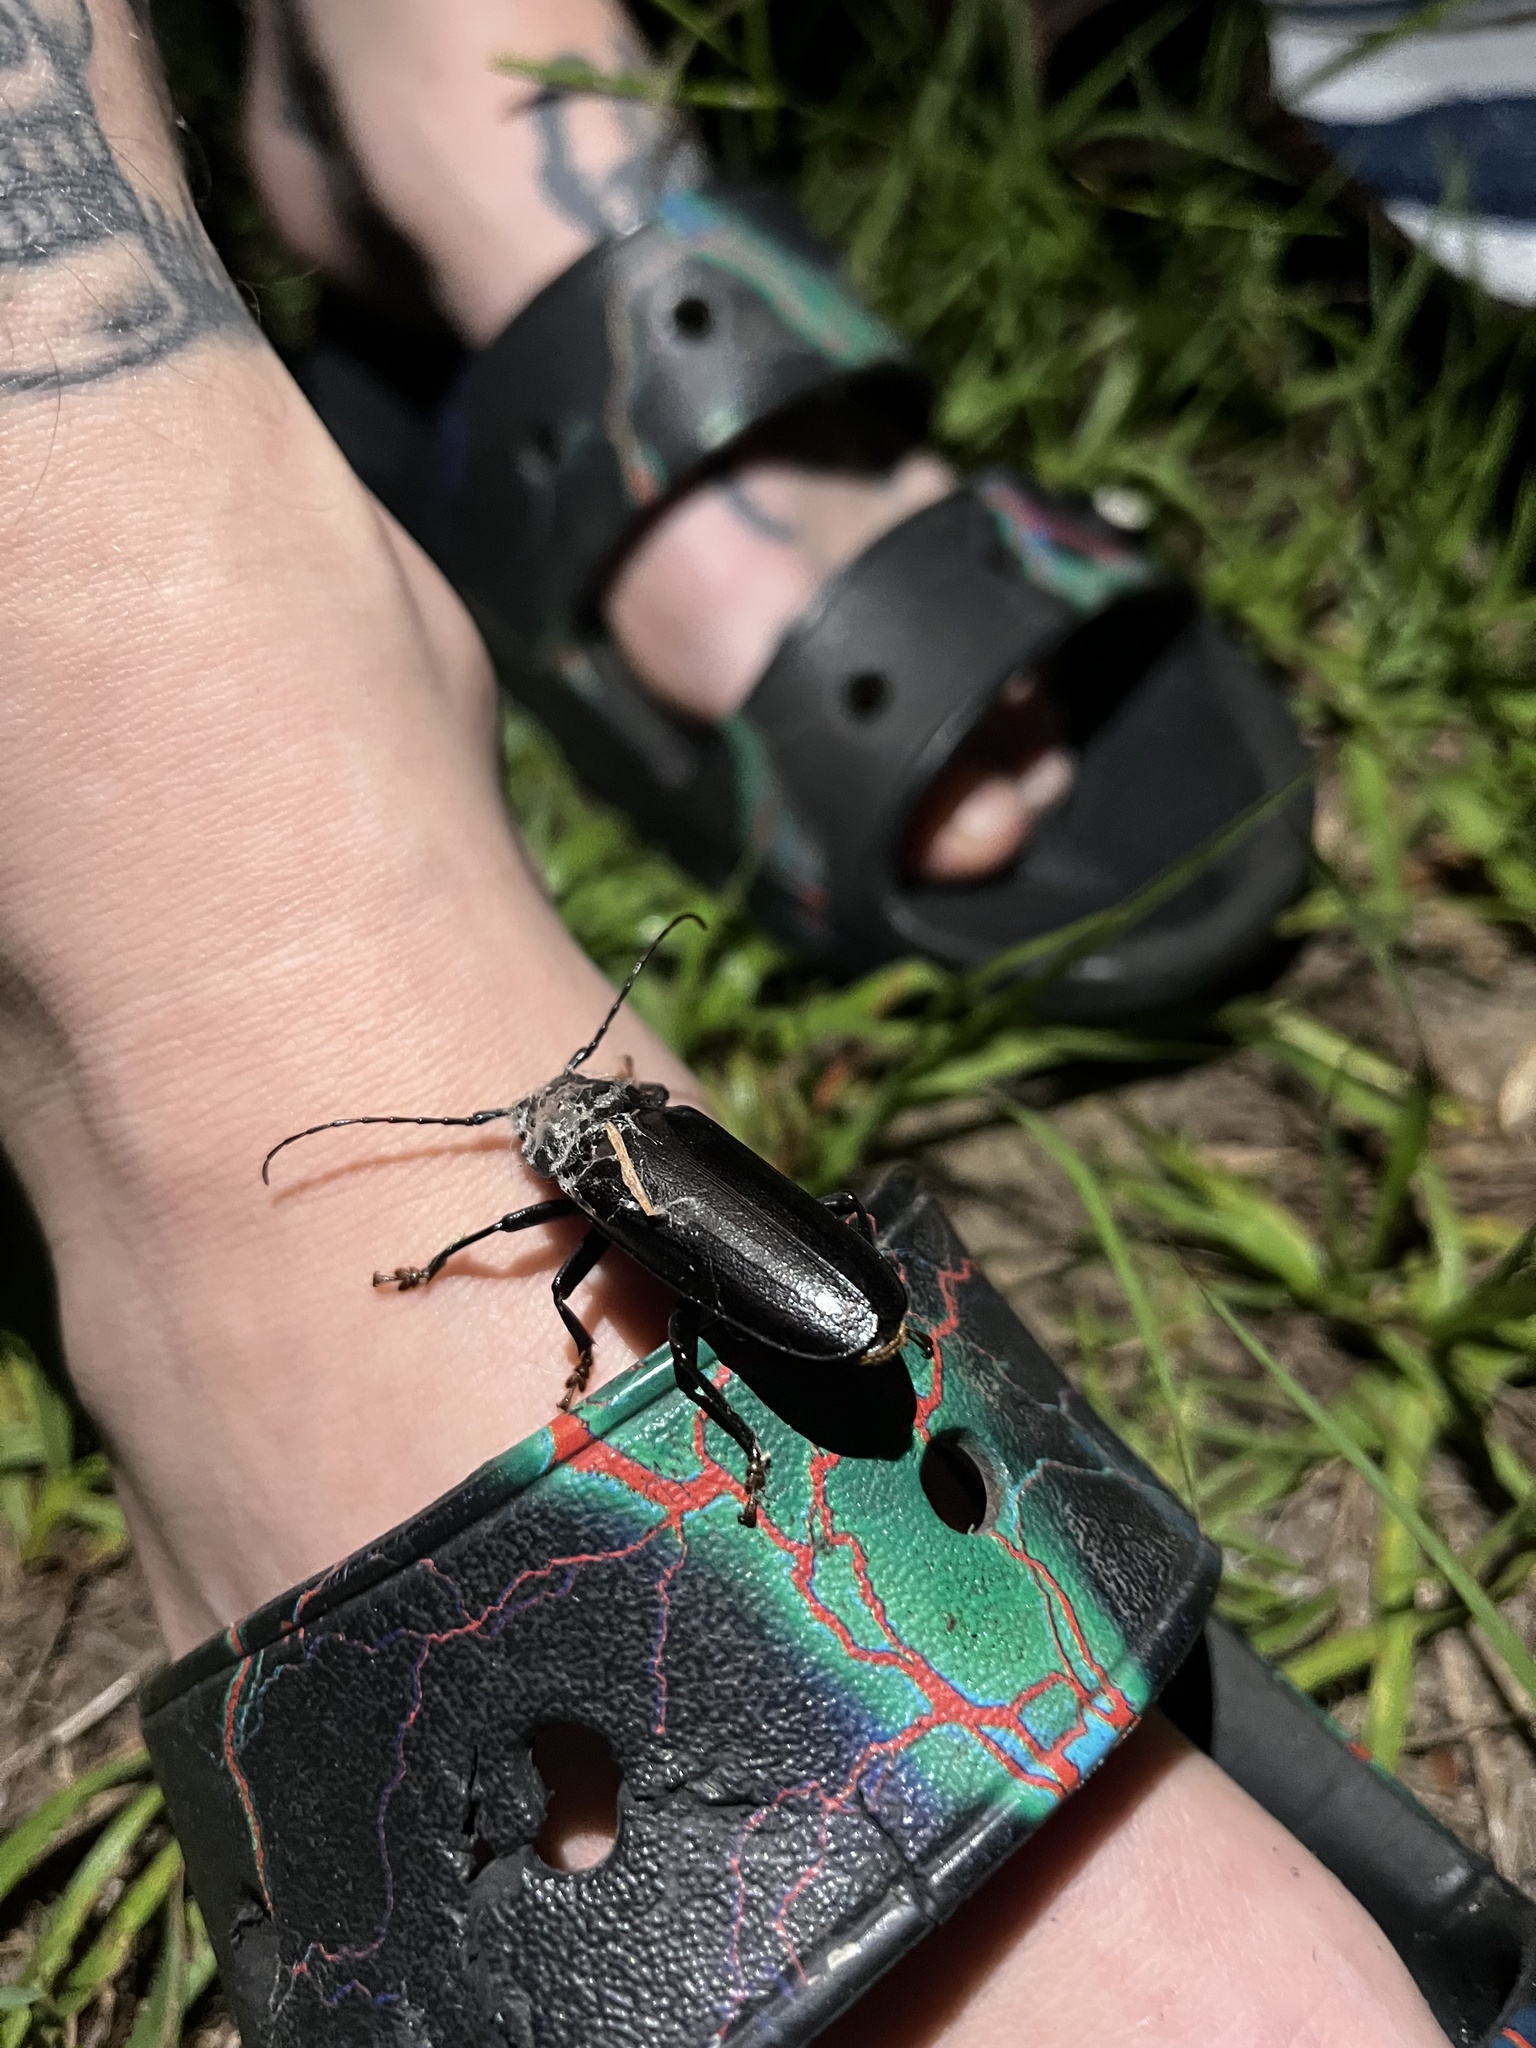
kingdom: Animalia
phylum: Arthropoda
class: Insecta
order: Coleoptera
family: Cerambycidae
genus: Archodontes
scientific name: Archodontes melanopus
